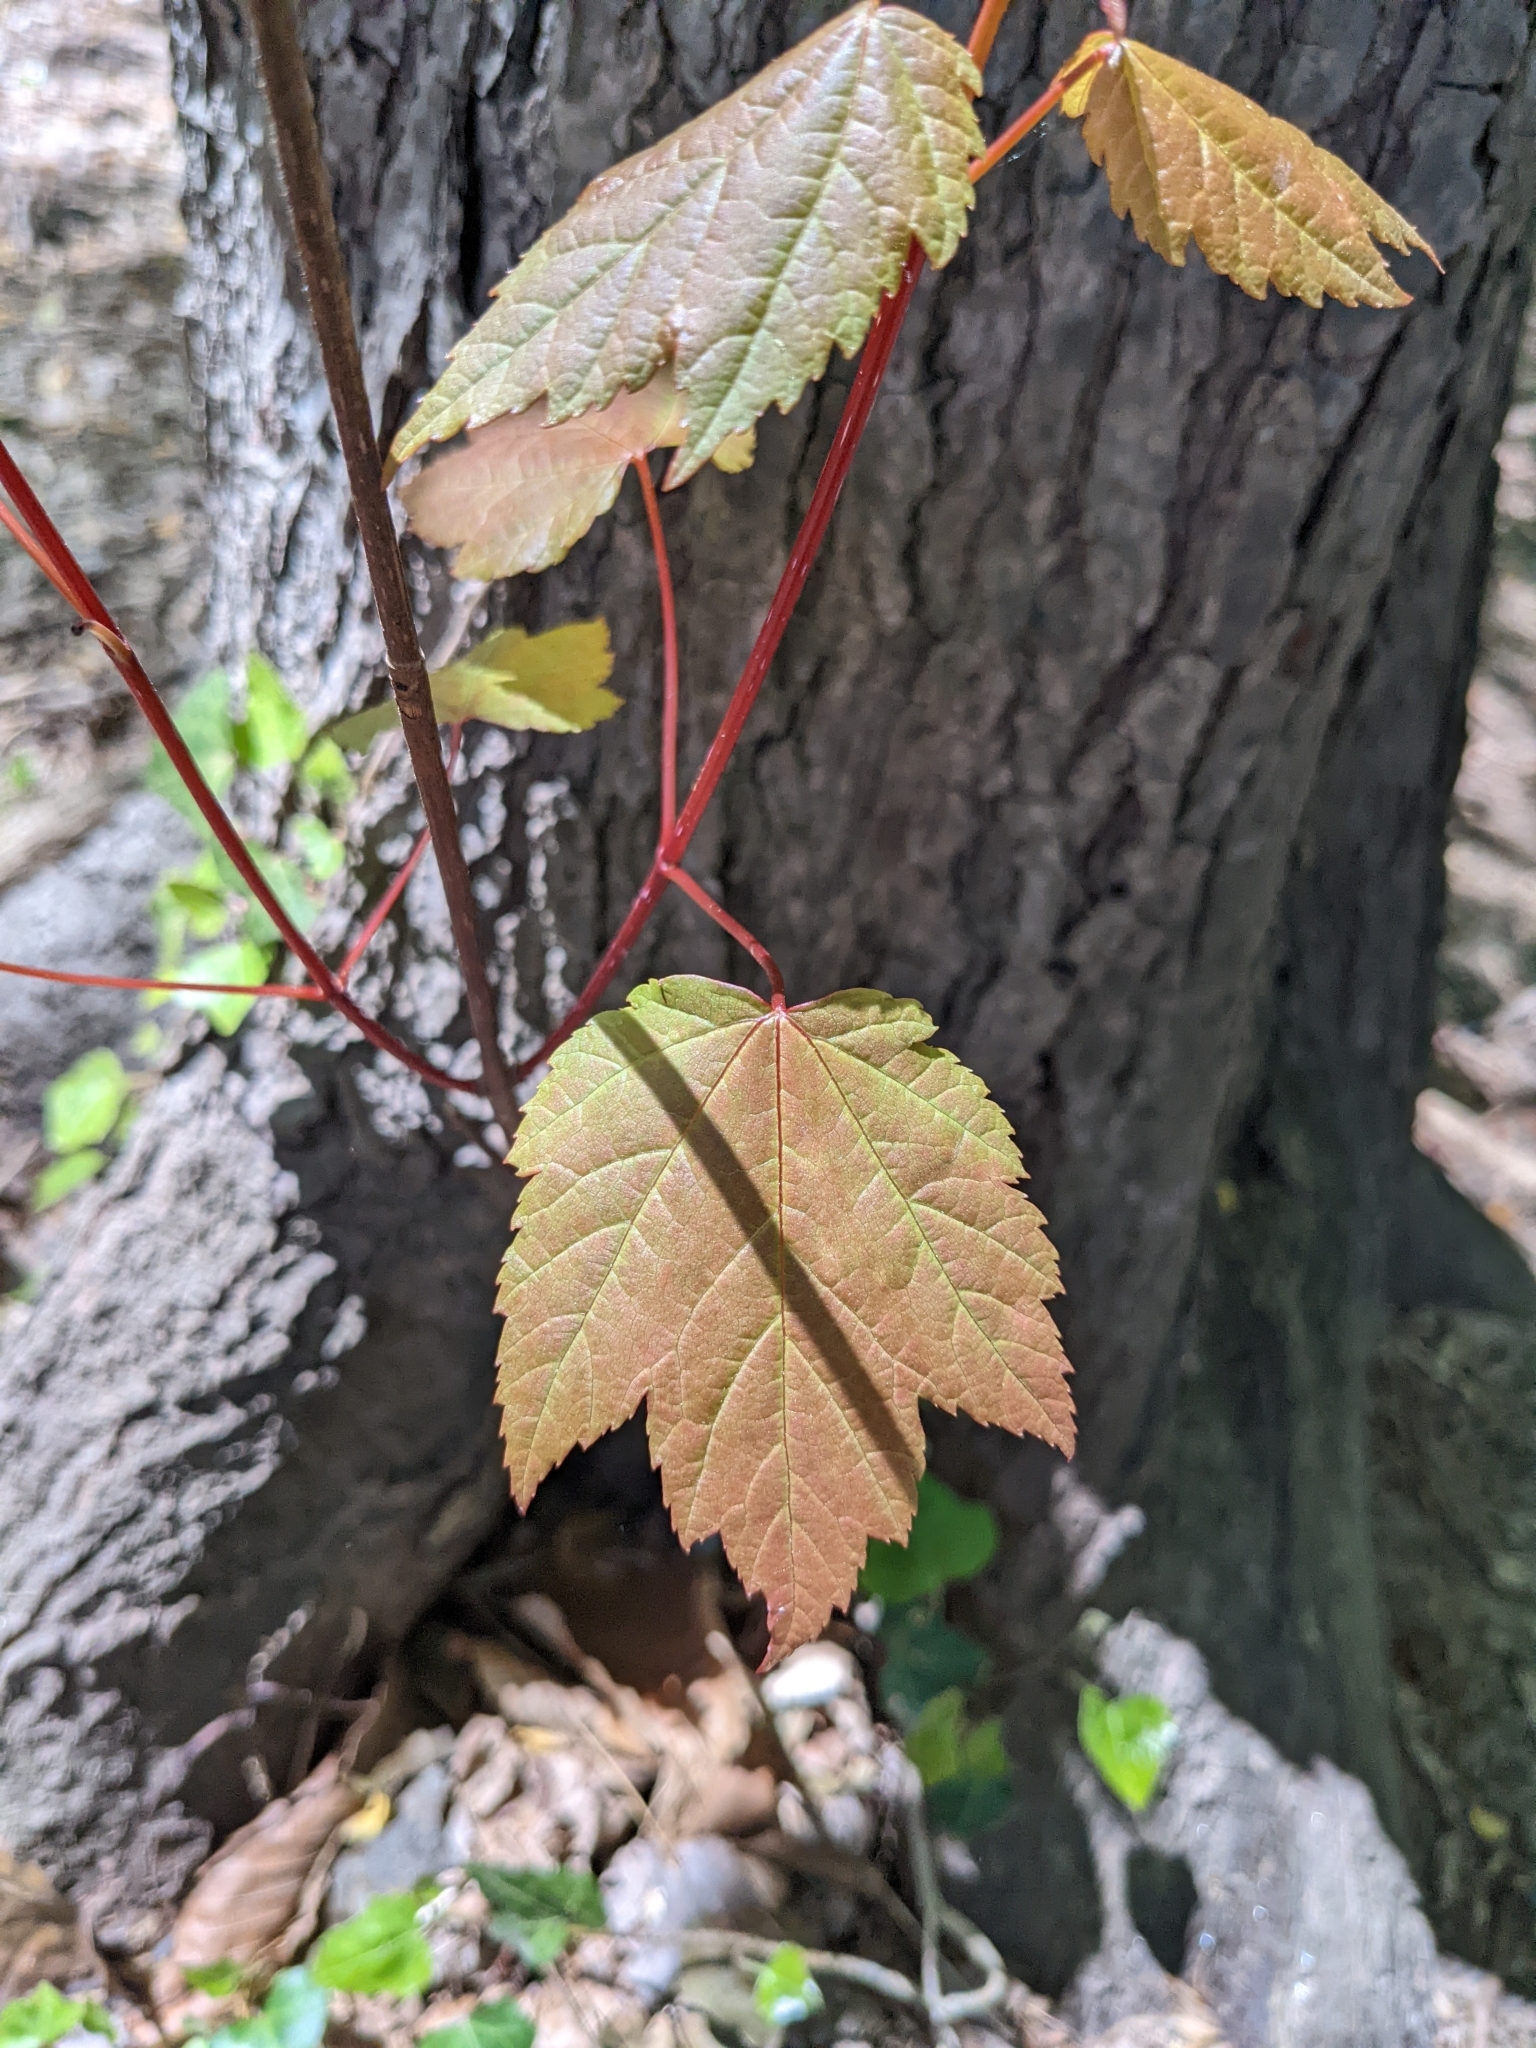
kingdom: Plantae
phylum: Tracheophyta
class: Magnoliopsida
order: Sapindales
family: Sapindaceae
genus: Acer
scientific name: Acer rubrum
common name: Red maple
